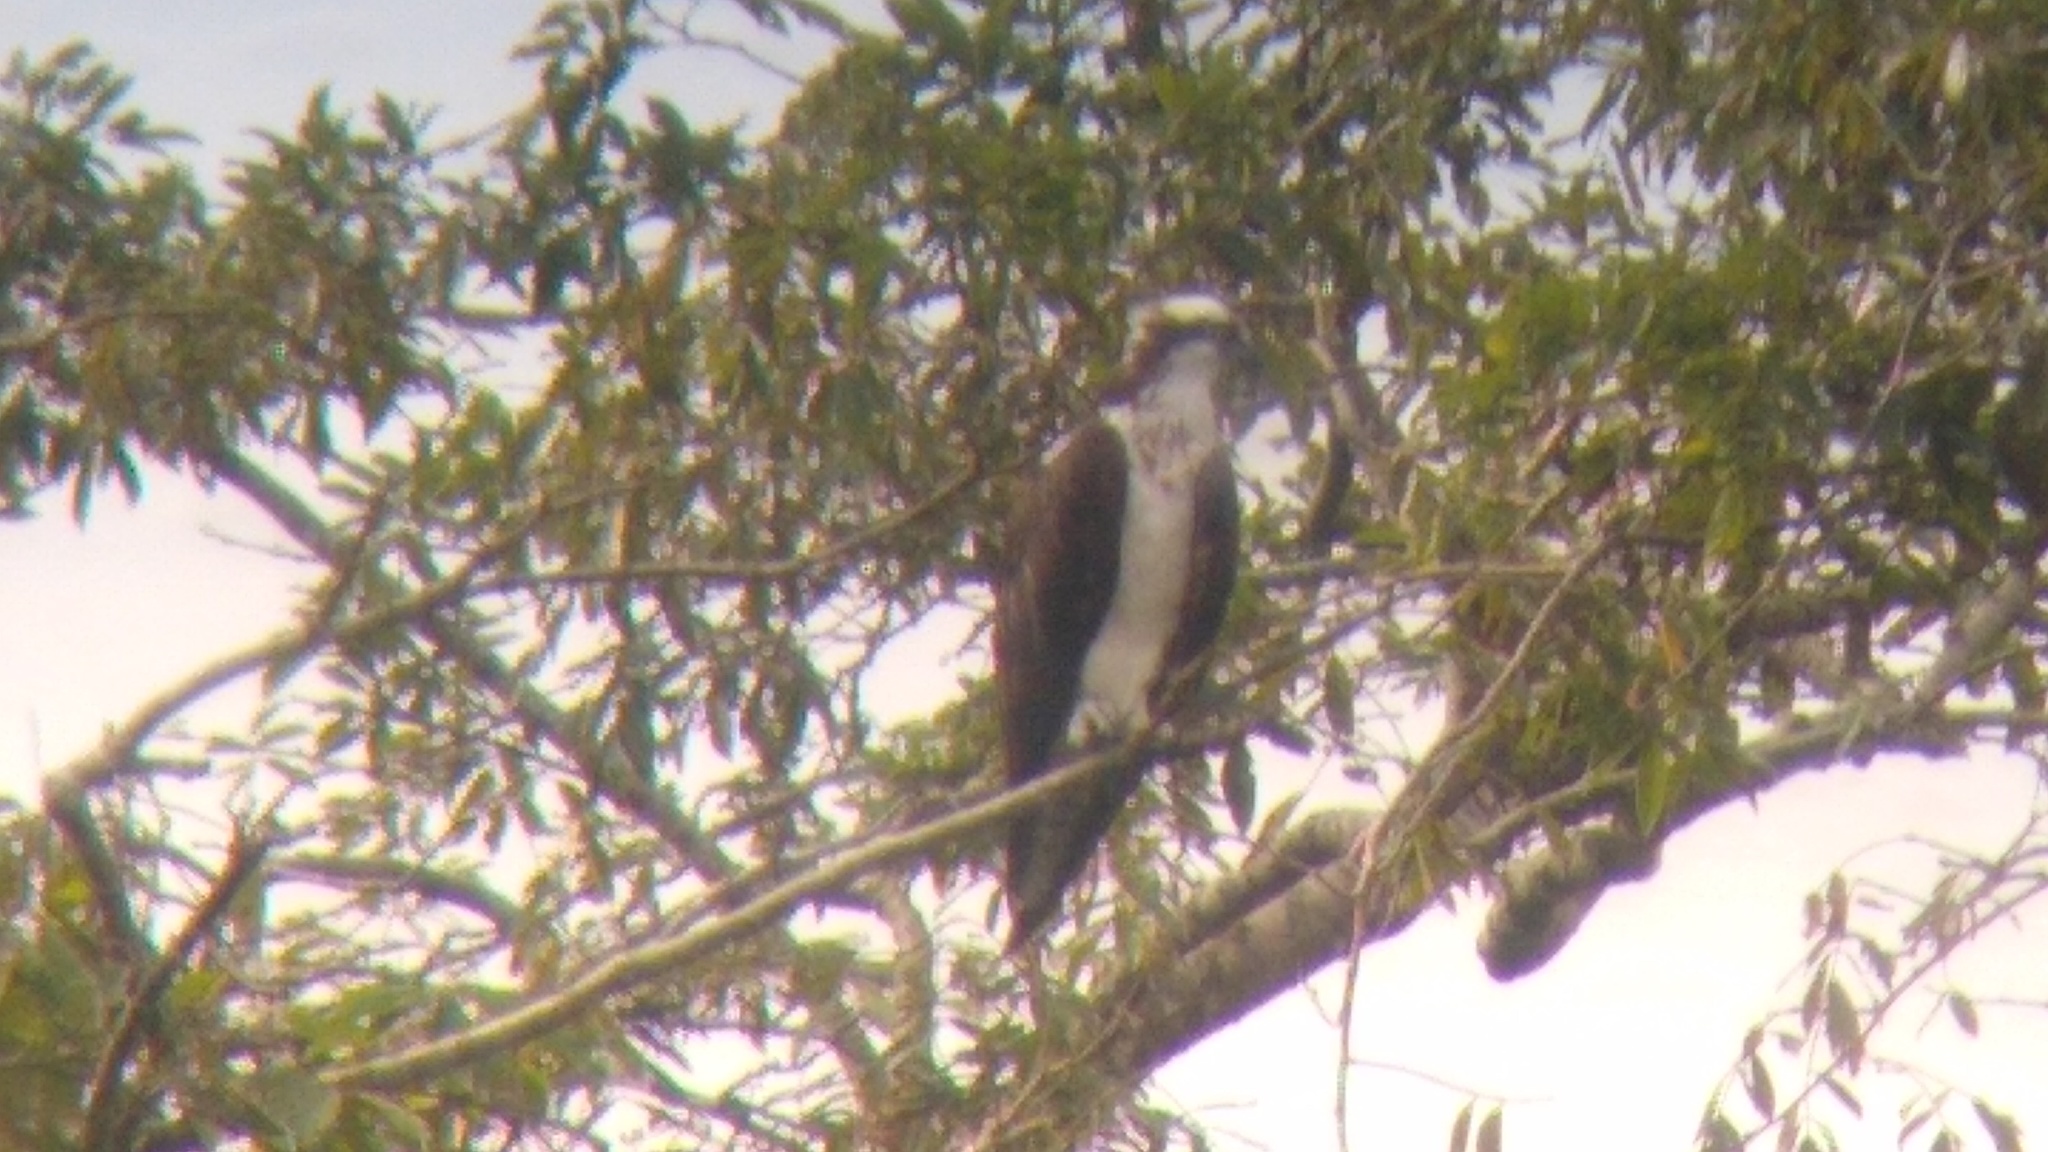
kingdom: Animalia
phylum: Chordata
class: Aves
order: Accipitriformes
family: Pandionidae
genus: Pandion
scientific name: Pandion haliaetus
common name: Osprey
